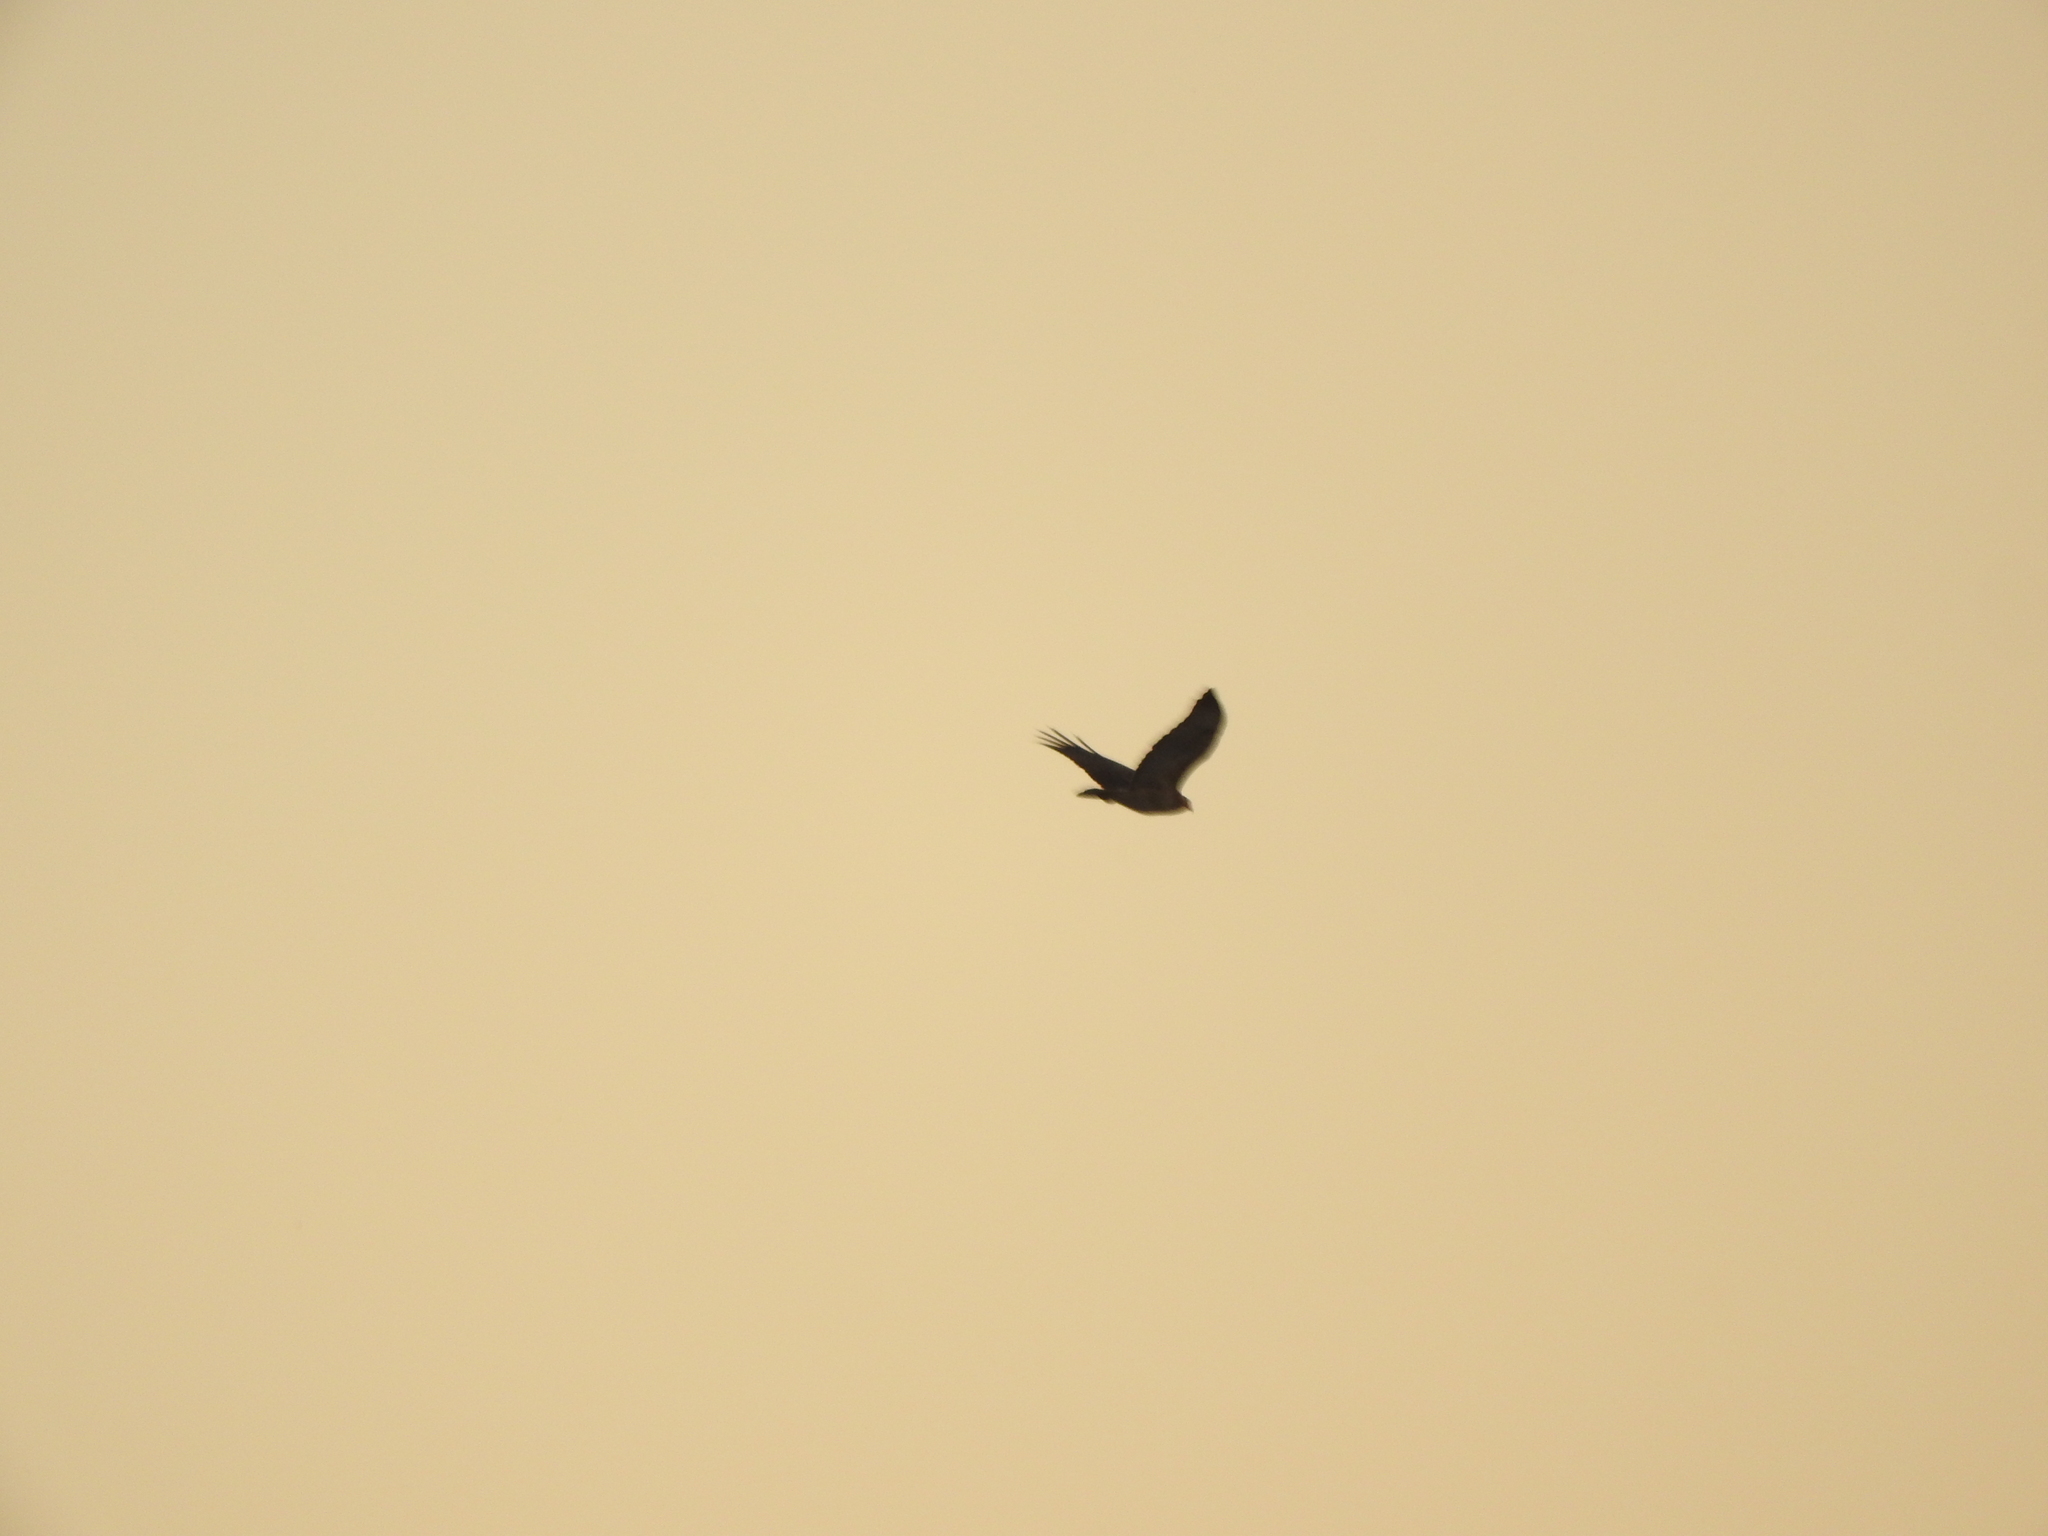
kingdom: Animalia
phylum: Chordata
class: Aves
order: Accipitriformes
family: Accipitridae
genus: Buteo
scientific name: Buteo jamaicensis
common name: Red-tailed hawk
